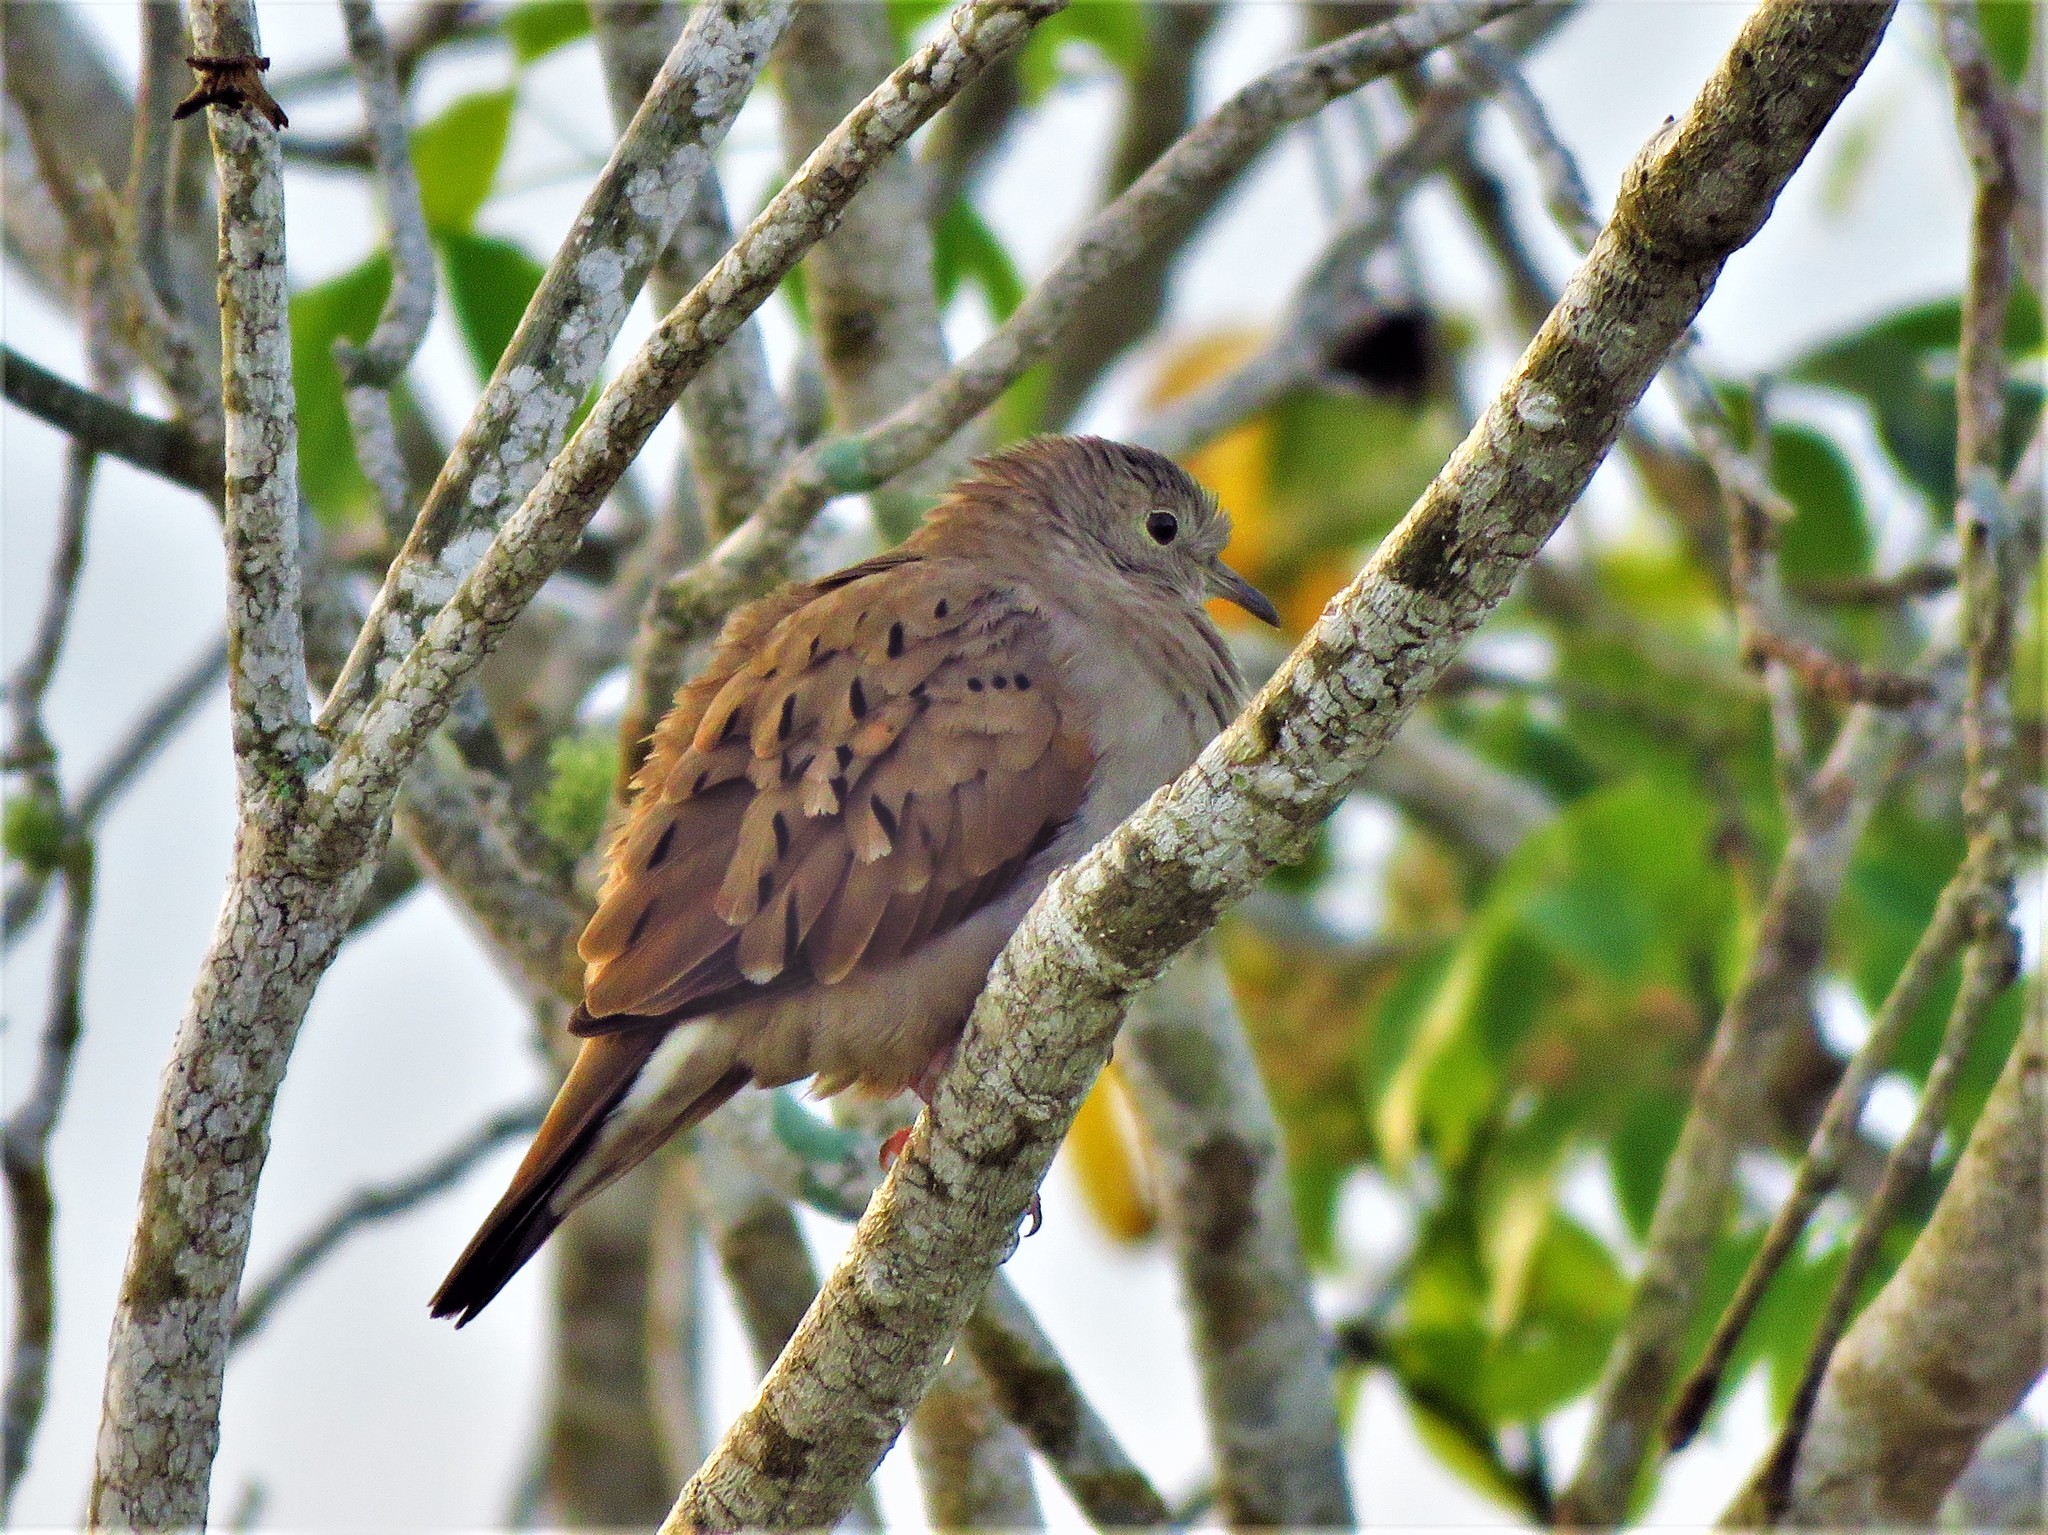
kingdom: Animalia
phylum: Chordata
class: Aves
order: Columbiformes
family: Columbidae
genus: Columbina
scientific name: Columbina talpacoti
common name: Ruddy ground dove
